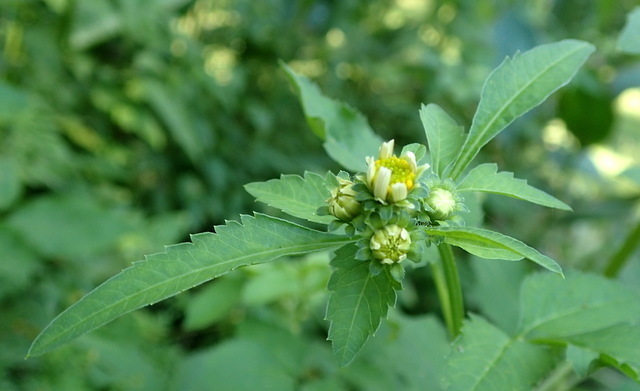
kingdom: Plantae
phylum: Tracheophyta
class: Magnoliopsida
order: Asterales
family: Asteraceae
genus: Bidens
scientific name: Bidens alba
